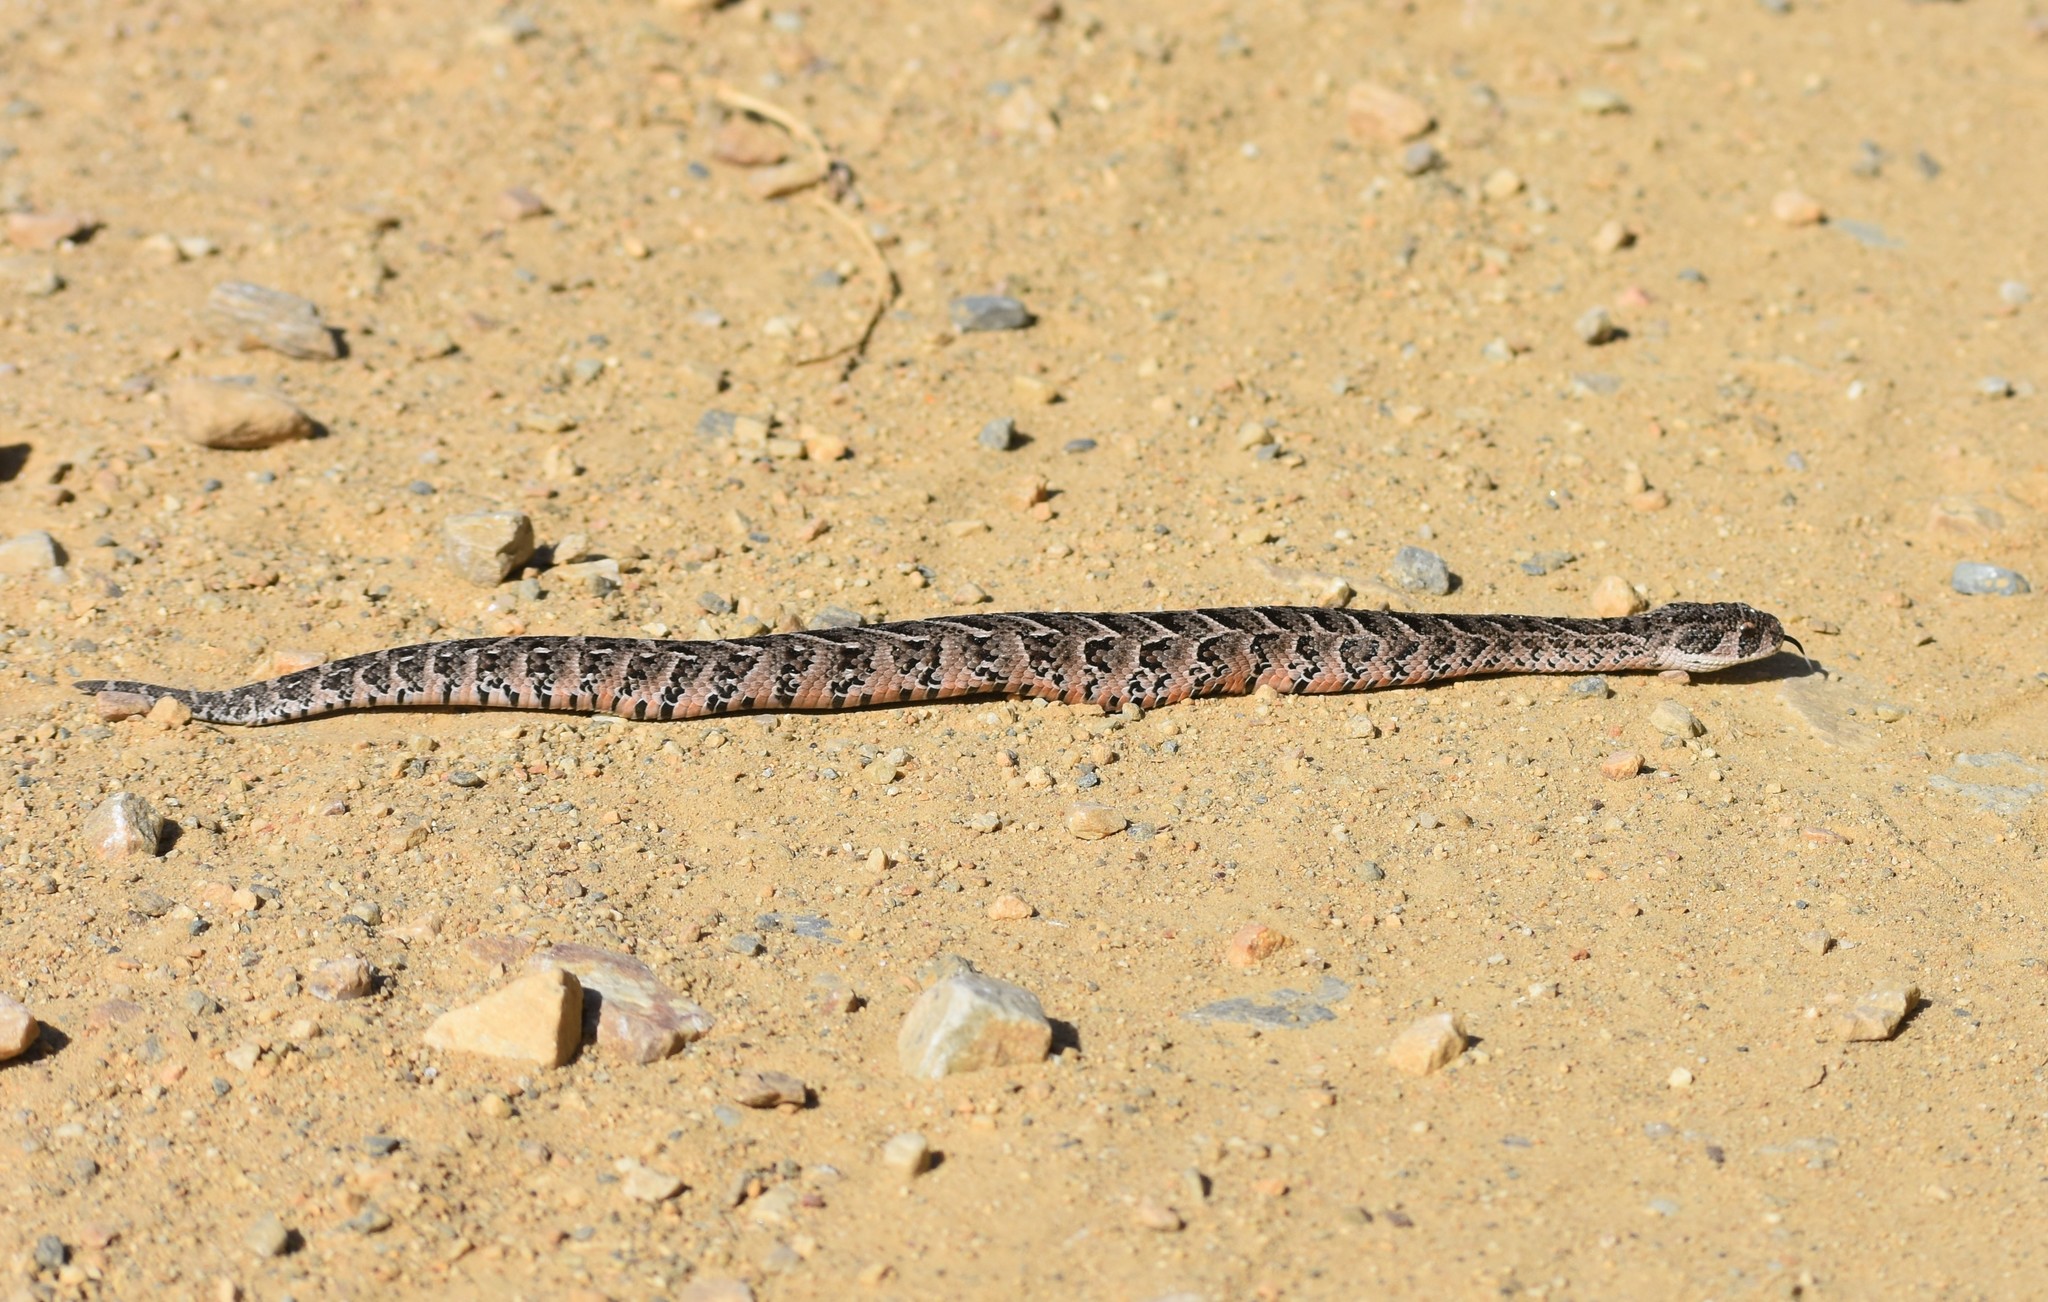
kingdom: Animalia
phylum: Chordata
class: Squamata
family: Viperidae
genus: Bitis
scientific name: Bitis arietans
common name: Puff adder
